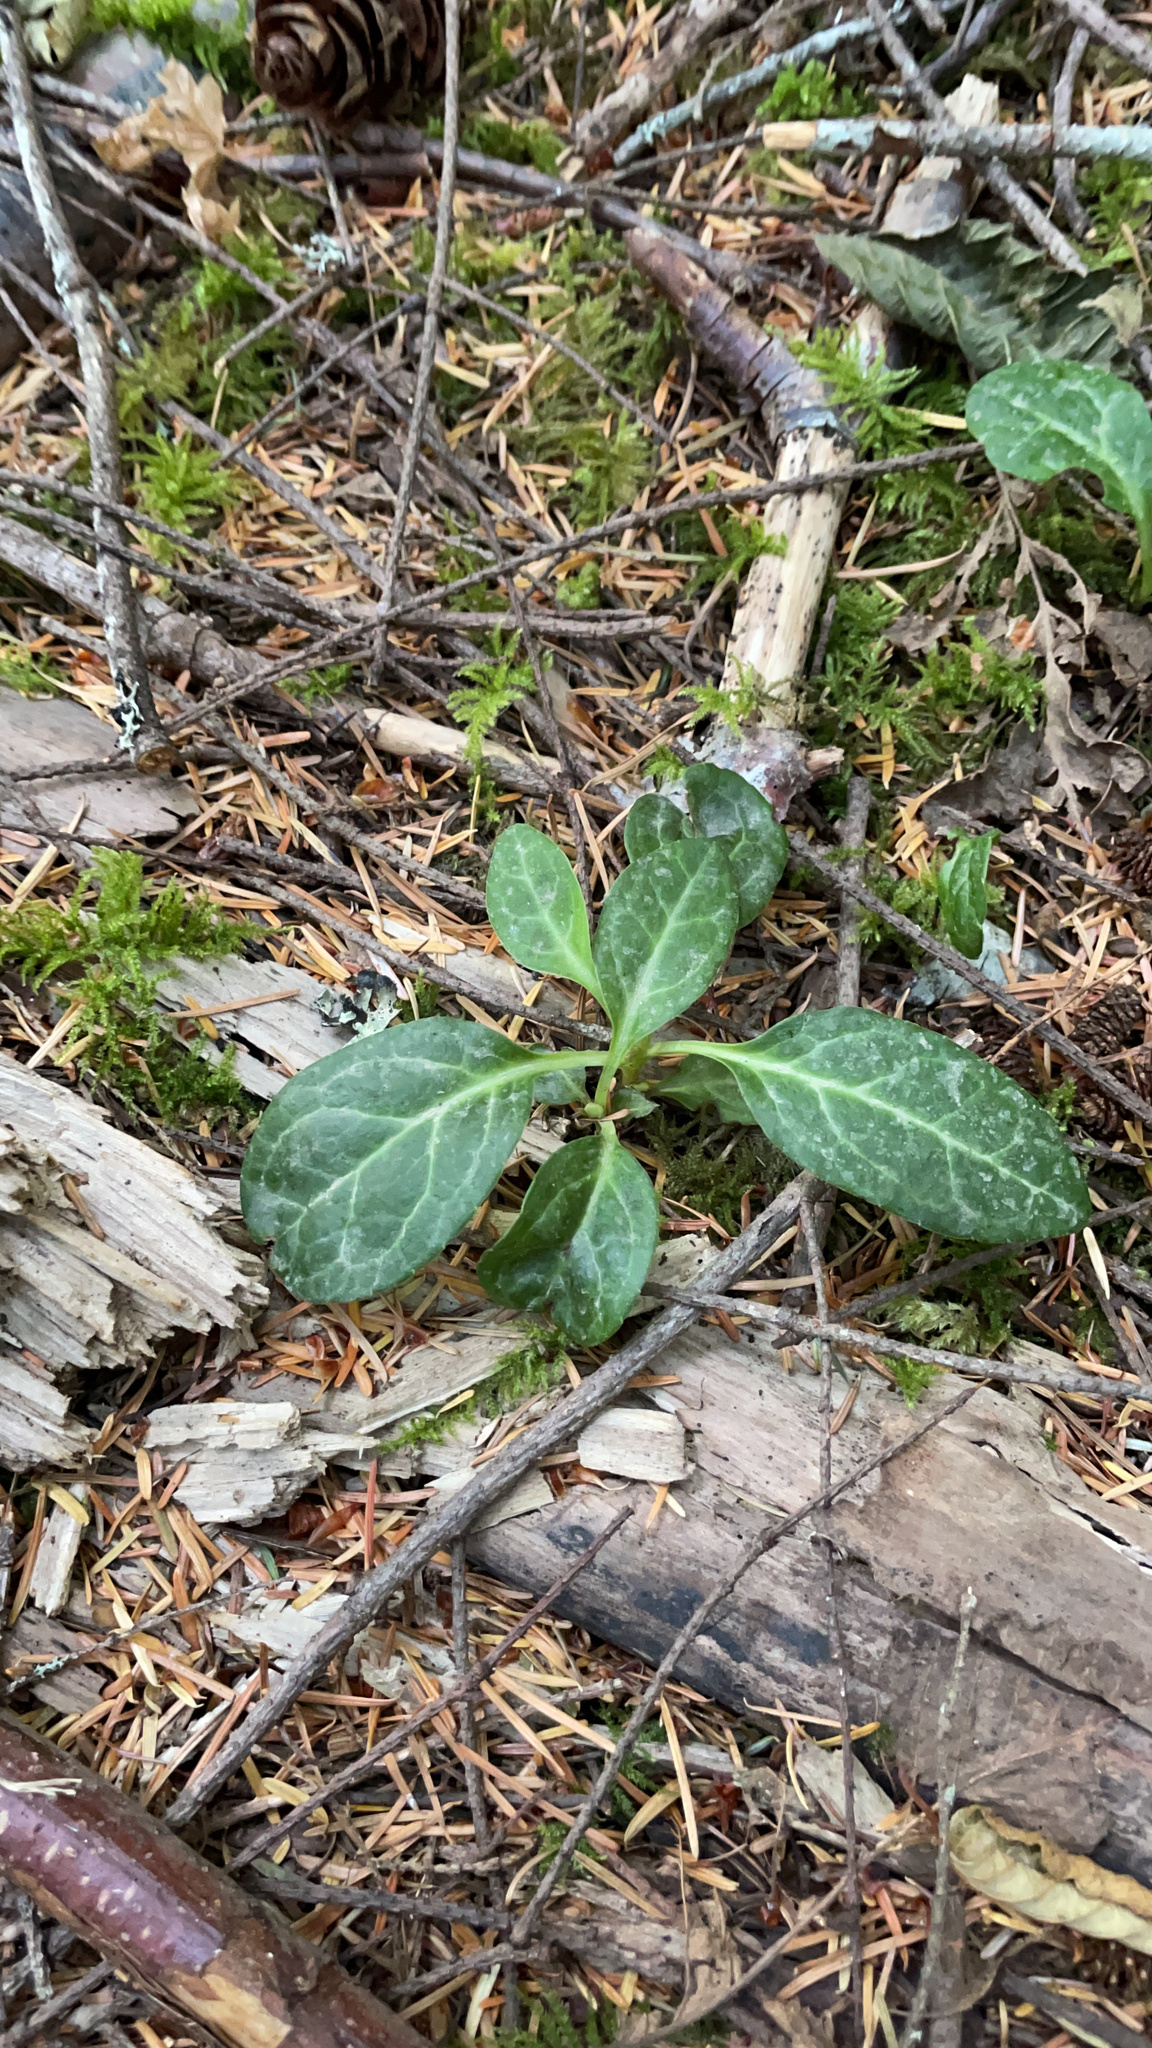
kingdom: Plantae
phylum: Tracheophyta
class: Magnoliopsida
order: Ericales
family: Ericaceae
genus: Pyrola
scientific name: Pyrola picta
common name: White-vein wintergreen
